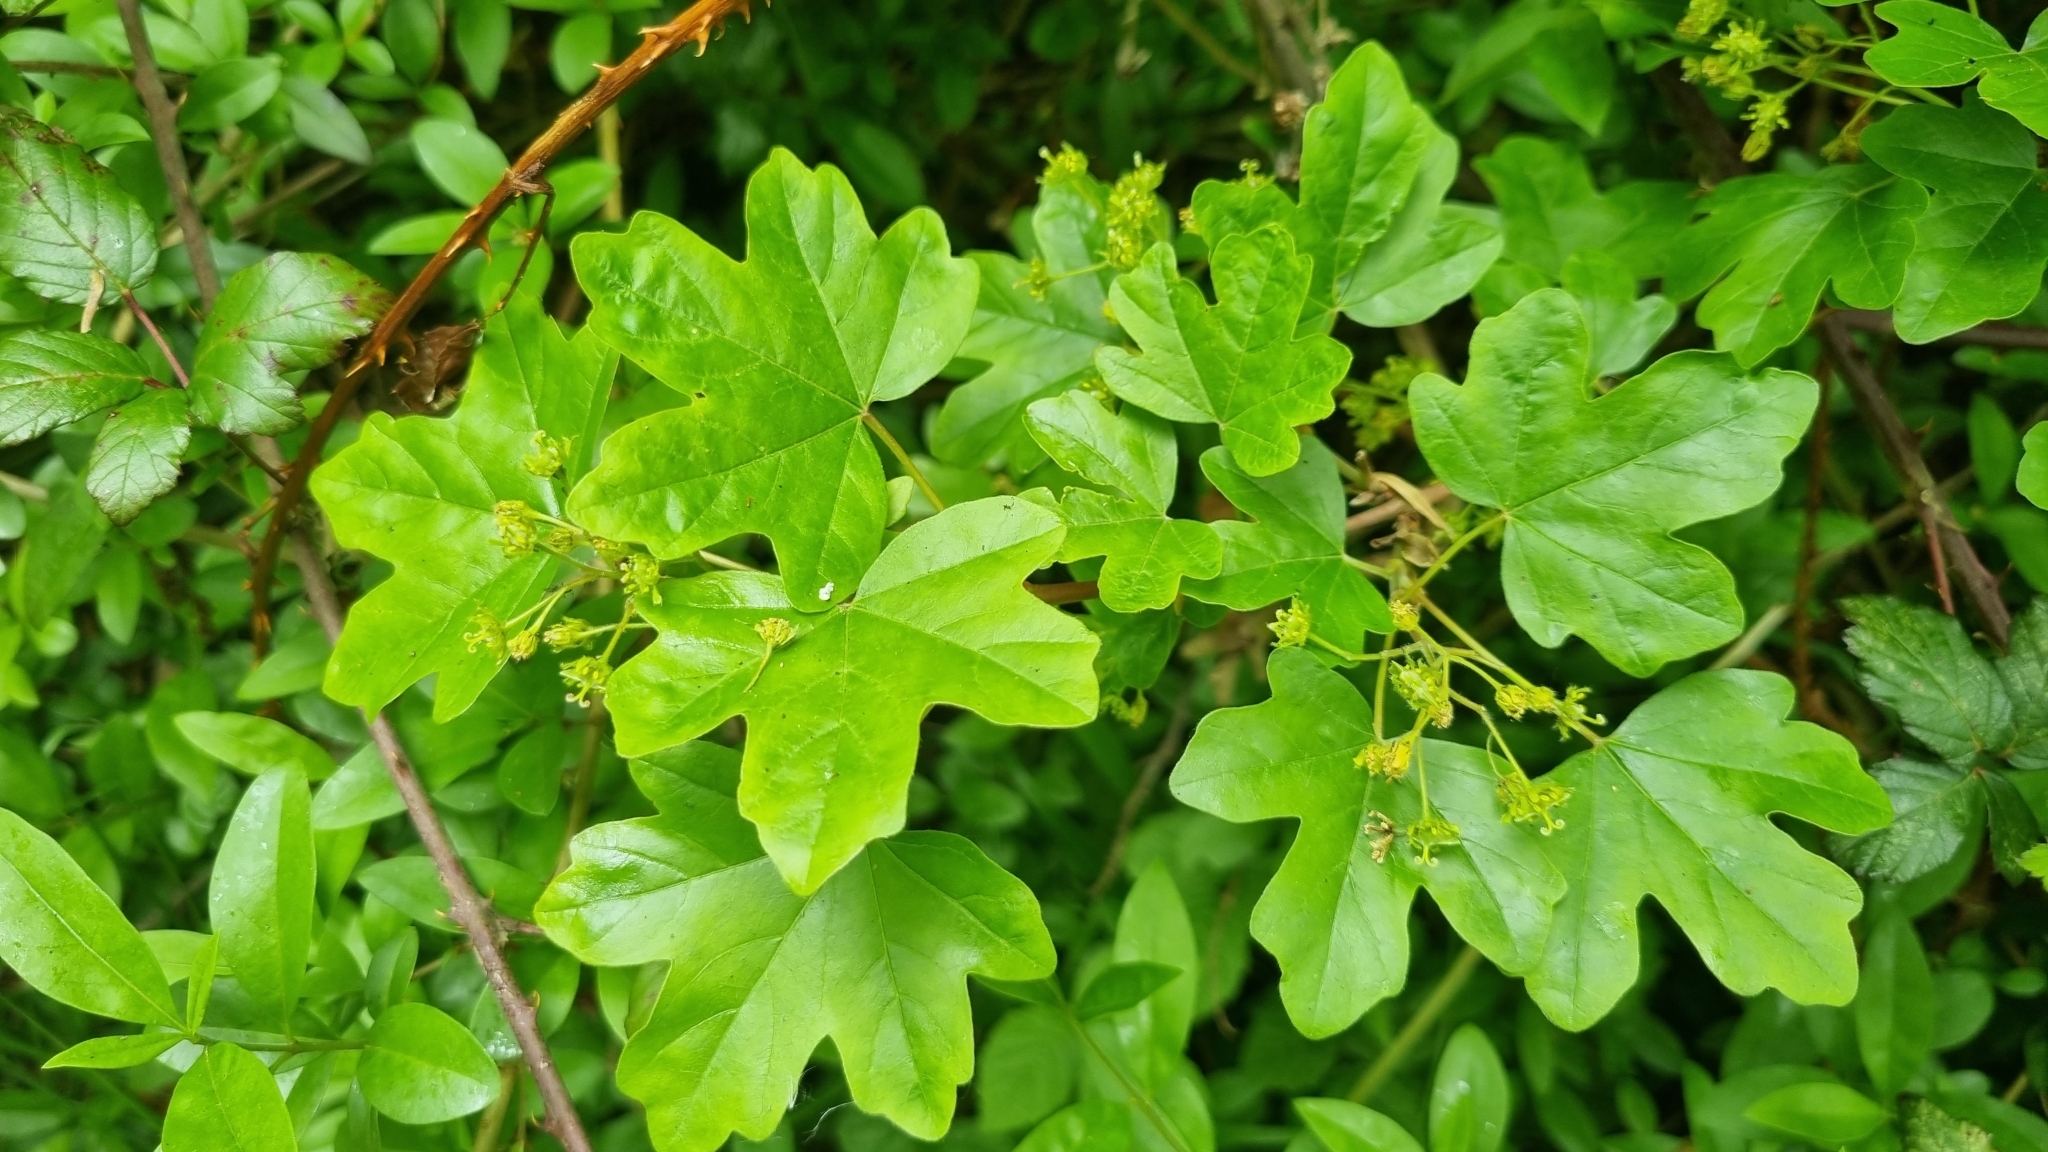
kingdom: Plantae
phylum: Tracheophyta
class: Magnoliopsida
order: Sapindales
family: Sapindaceae
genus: Acer
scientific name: Acer campestre
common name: Field maple
